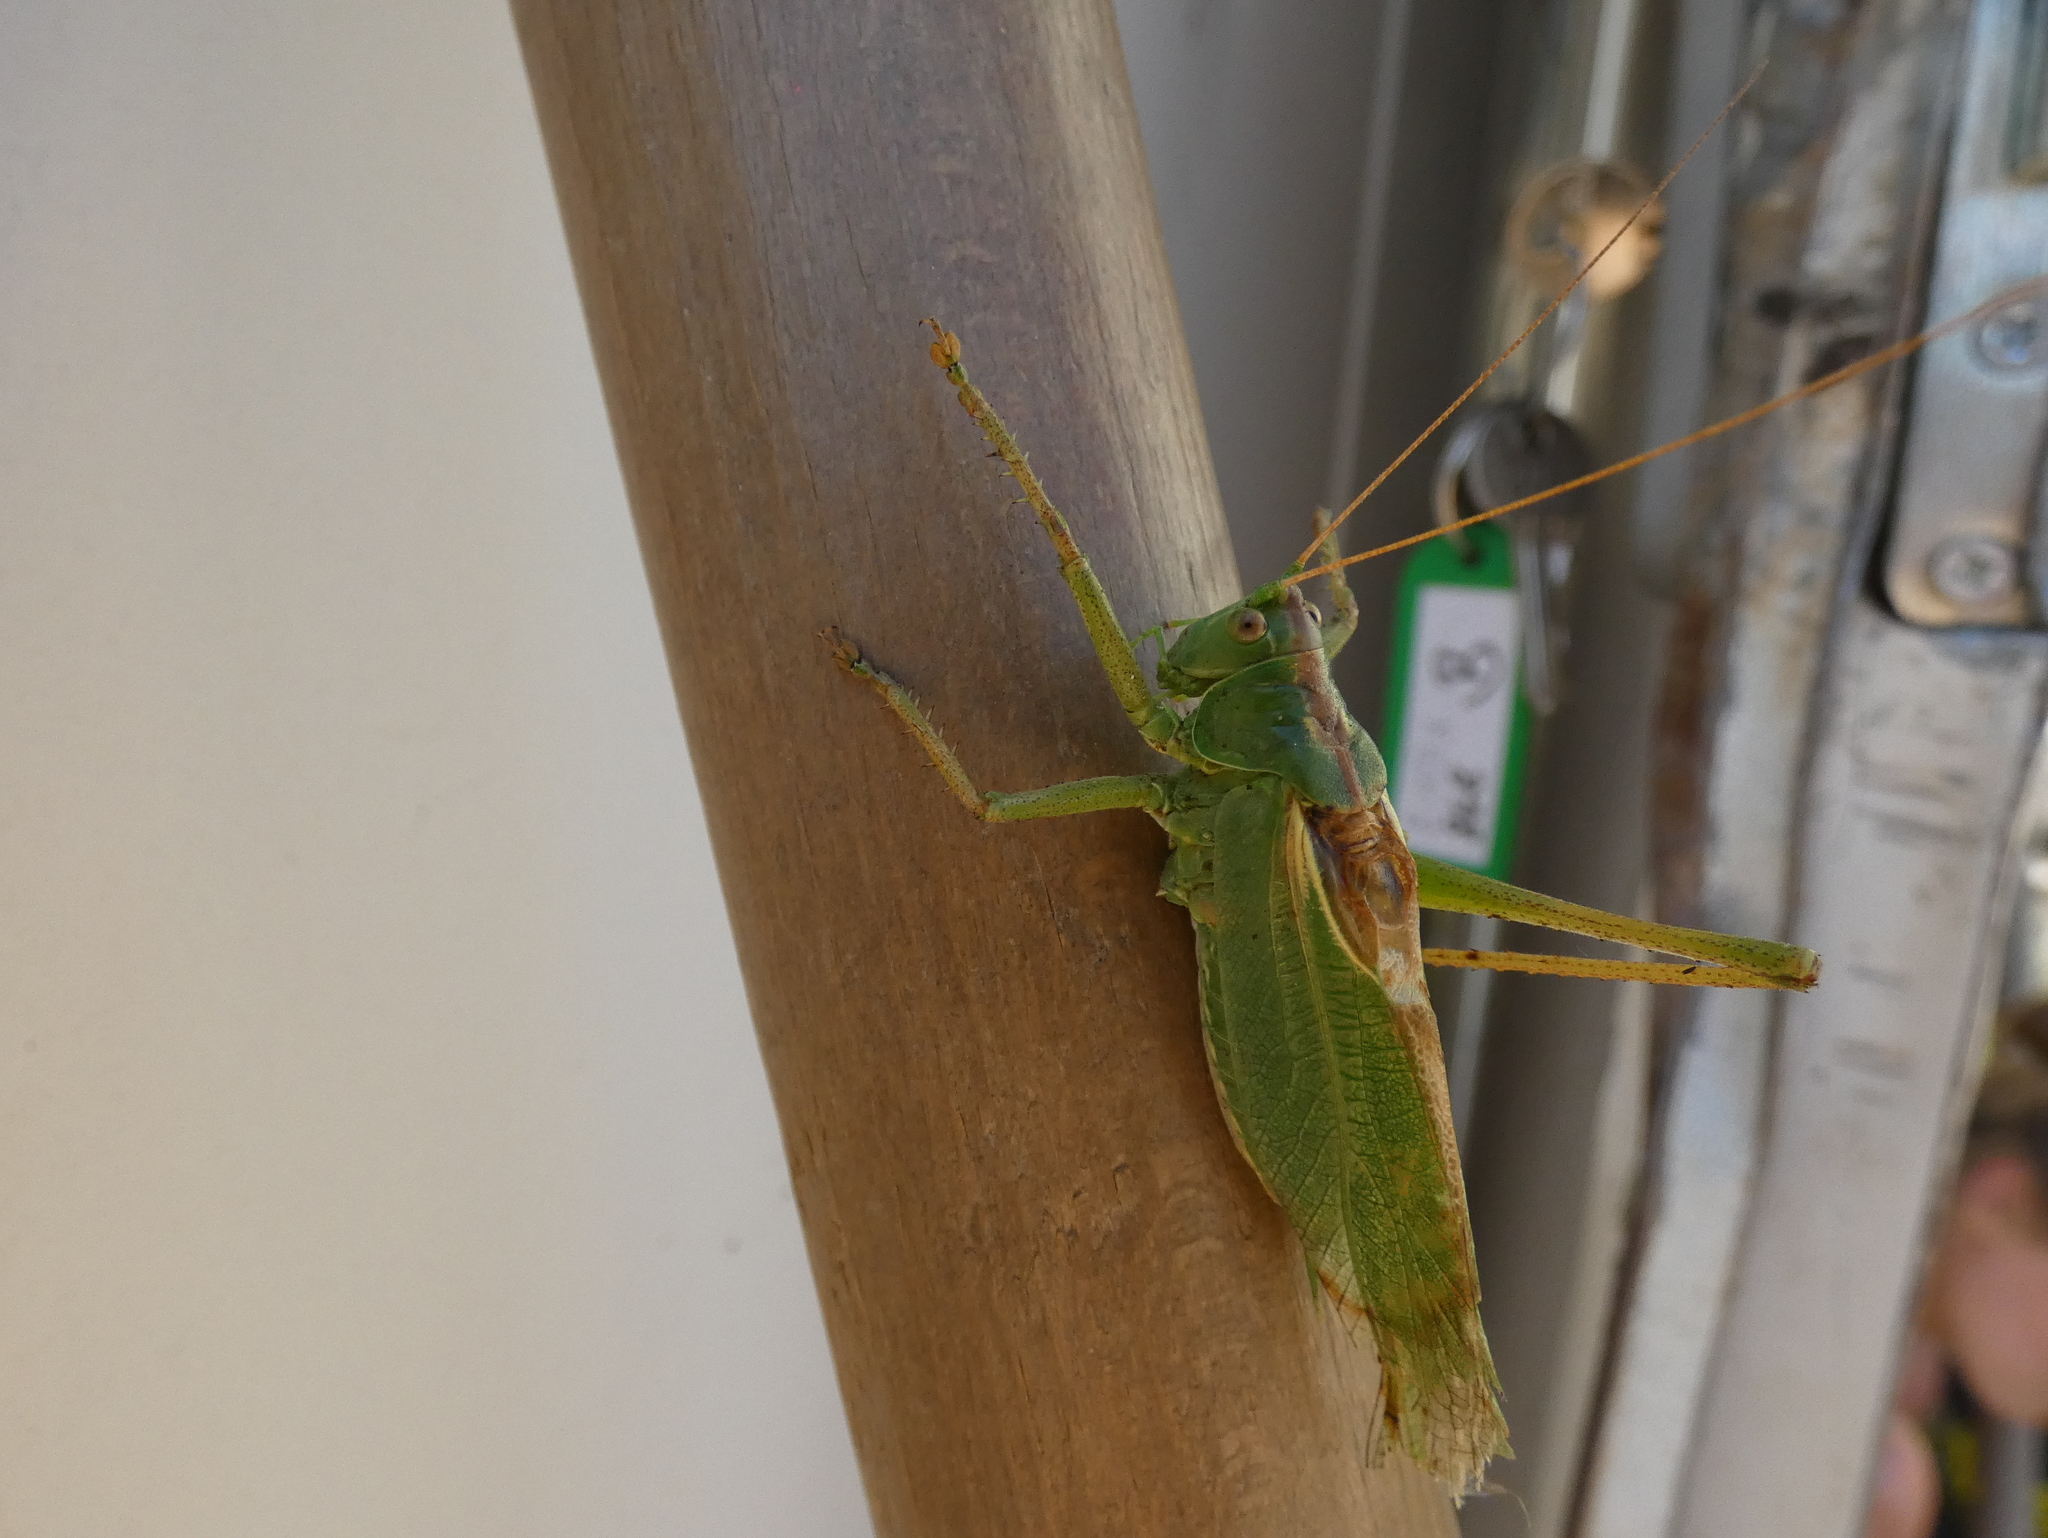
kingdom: Animalia
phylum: Arthropoda
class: Insecta
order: Orthoptera
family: Tettigoniidae
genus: Tettigonia
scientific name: Tettigonia viridissima
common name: Great green bush-cricket
